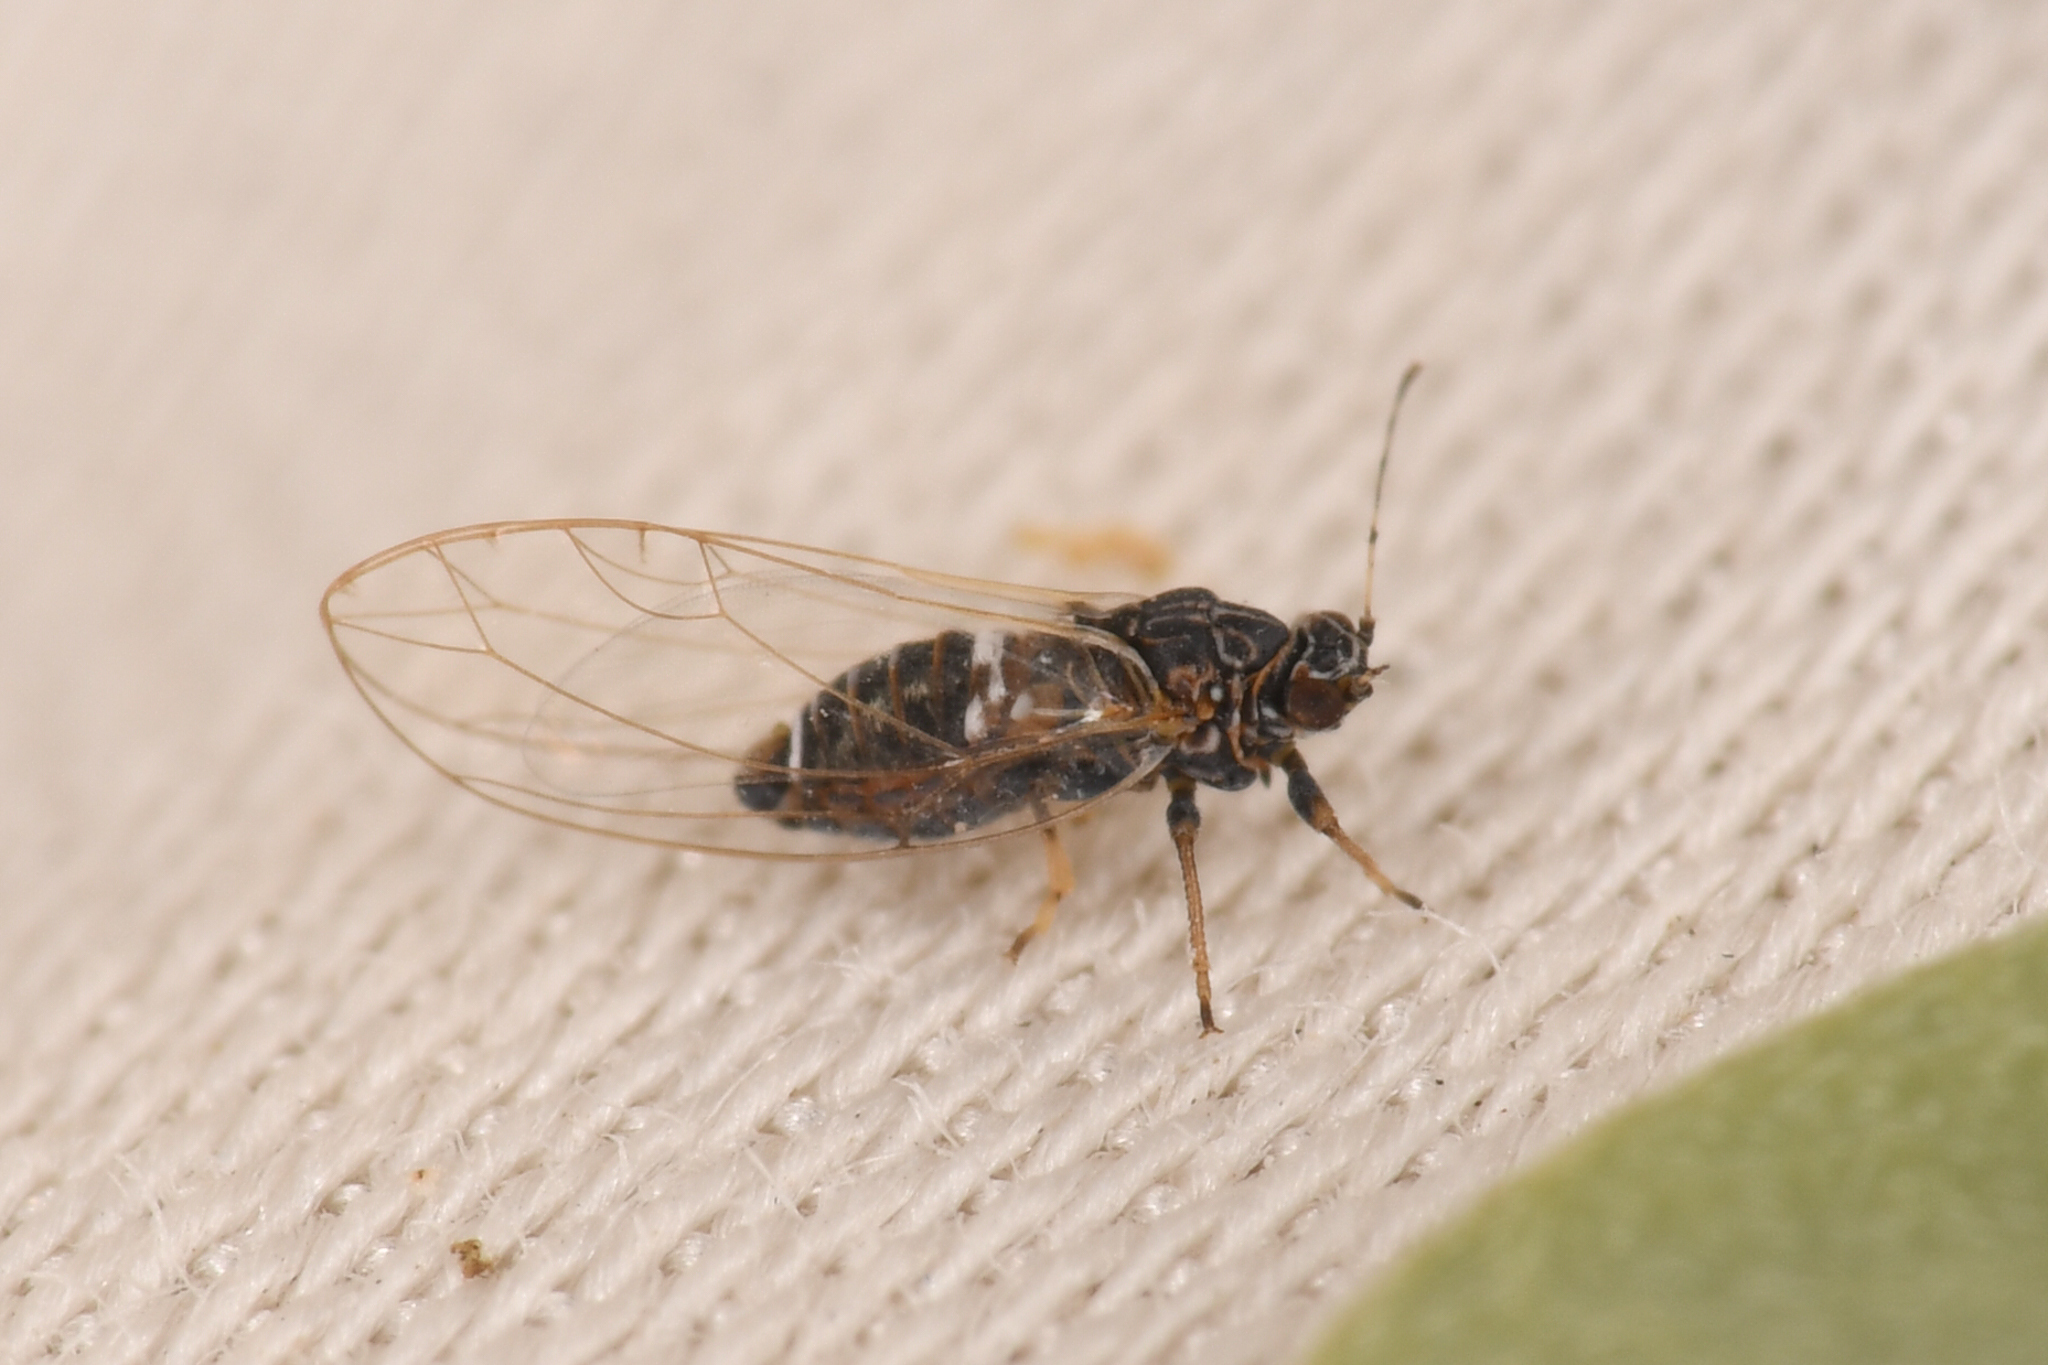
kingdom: Animalia
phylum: Arthropoda
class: Insecta
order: Hemiptera
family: Triozidae
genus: Bactericera
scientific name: Bactericera cockerelli
